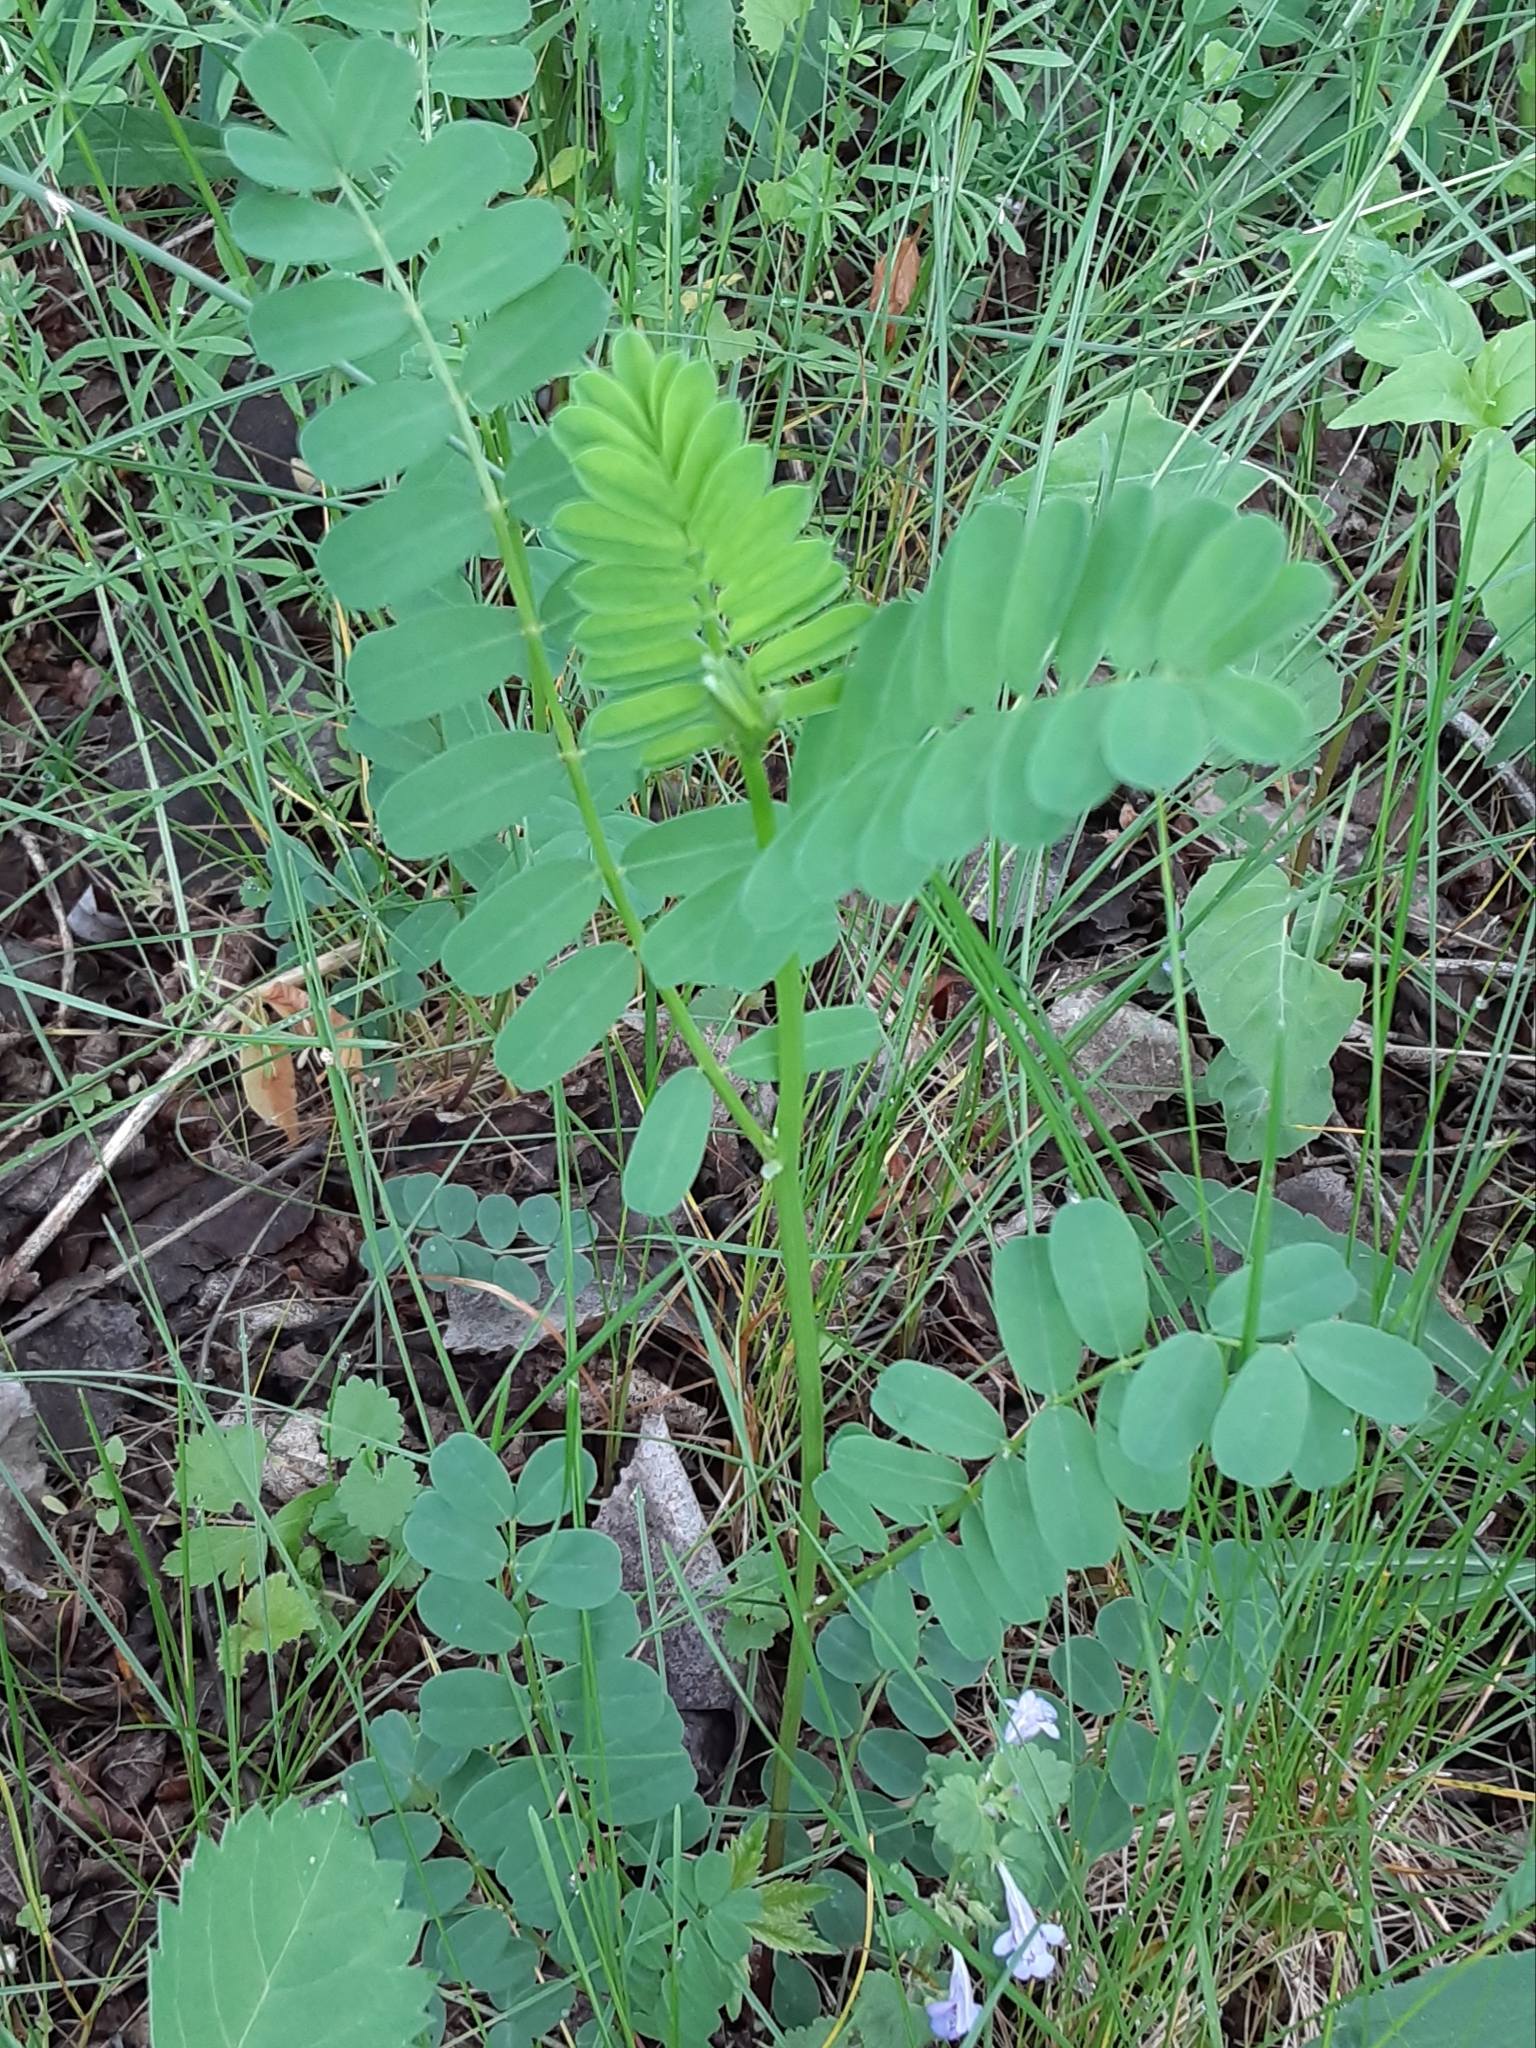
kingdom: Plantae
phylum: Tracheophyta
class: Magnoliopsida
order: Fabales
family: Fabaceae
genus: Coronilla
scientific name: Coronilla varia
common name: Crownvetch
